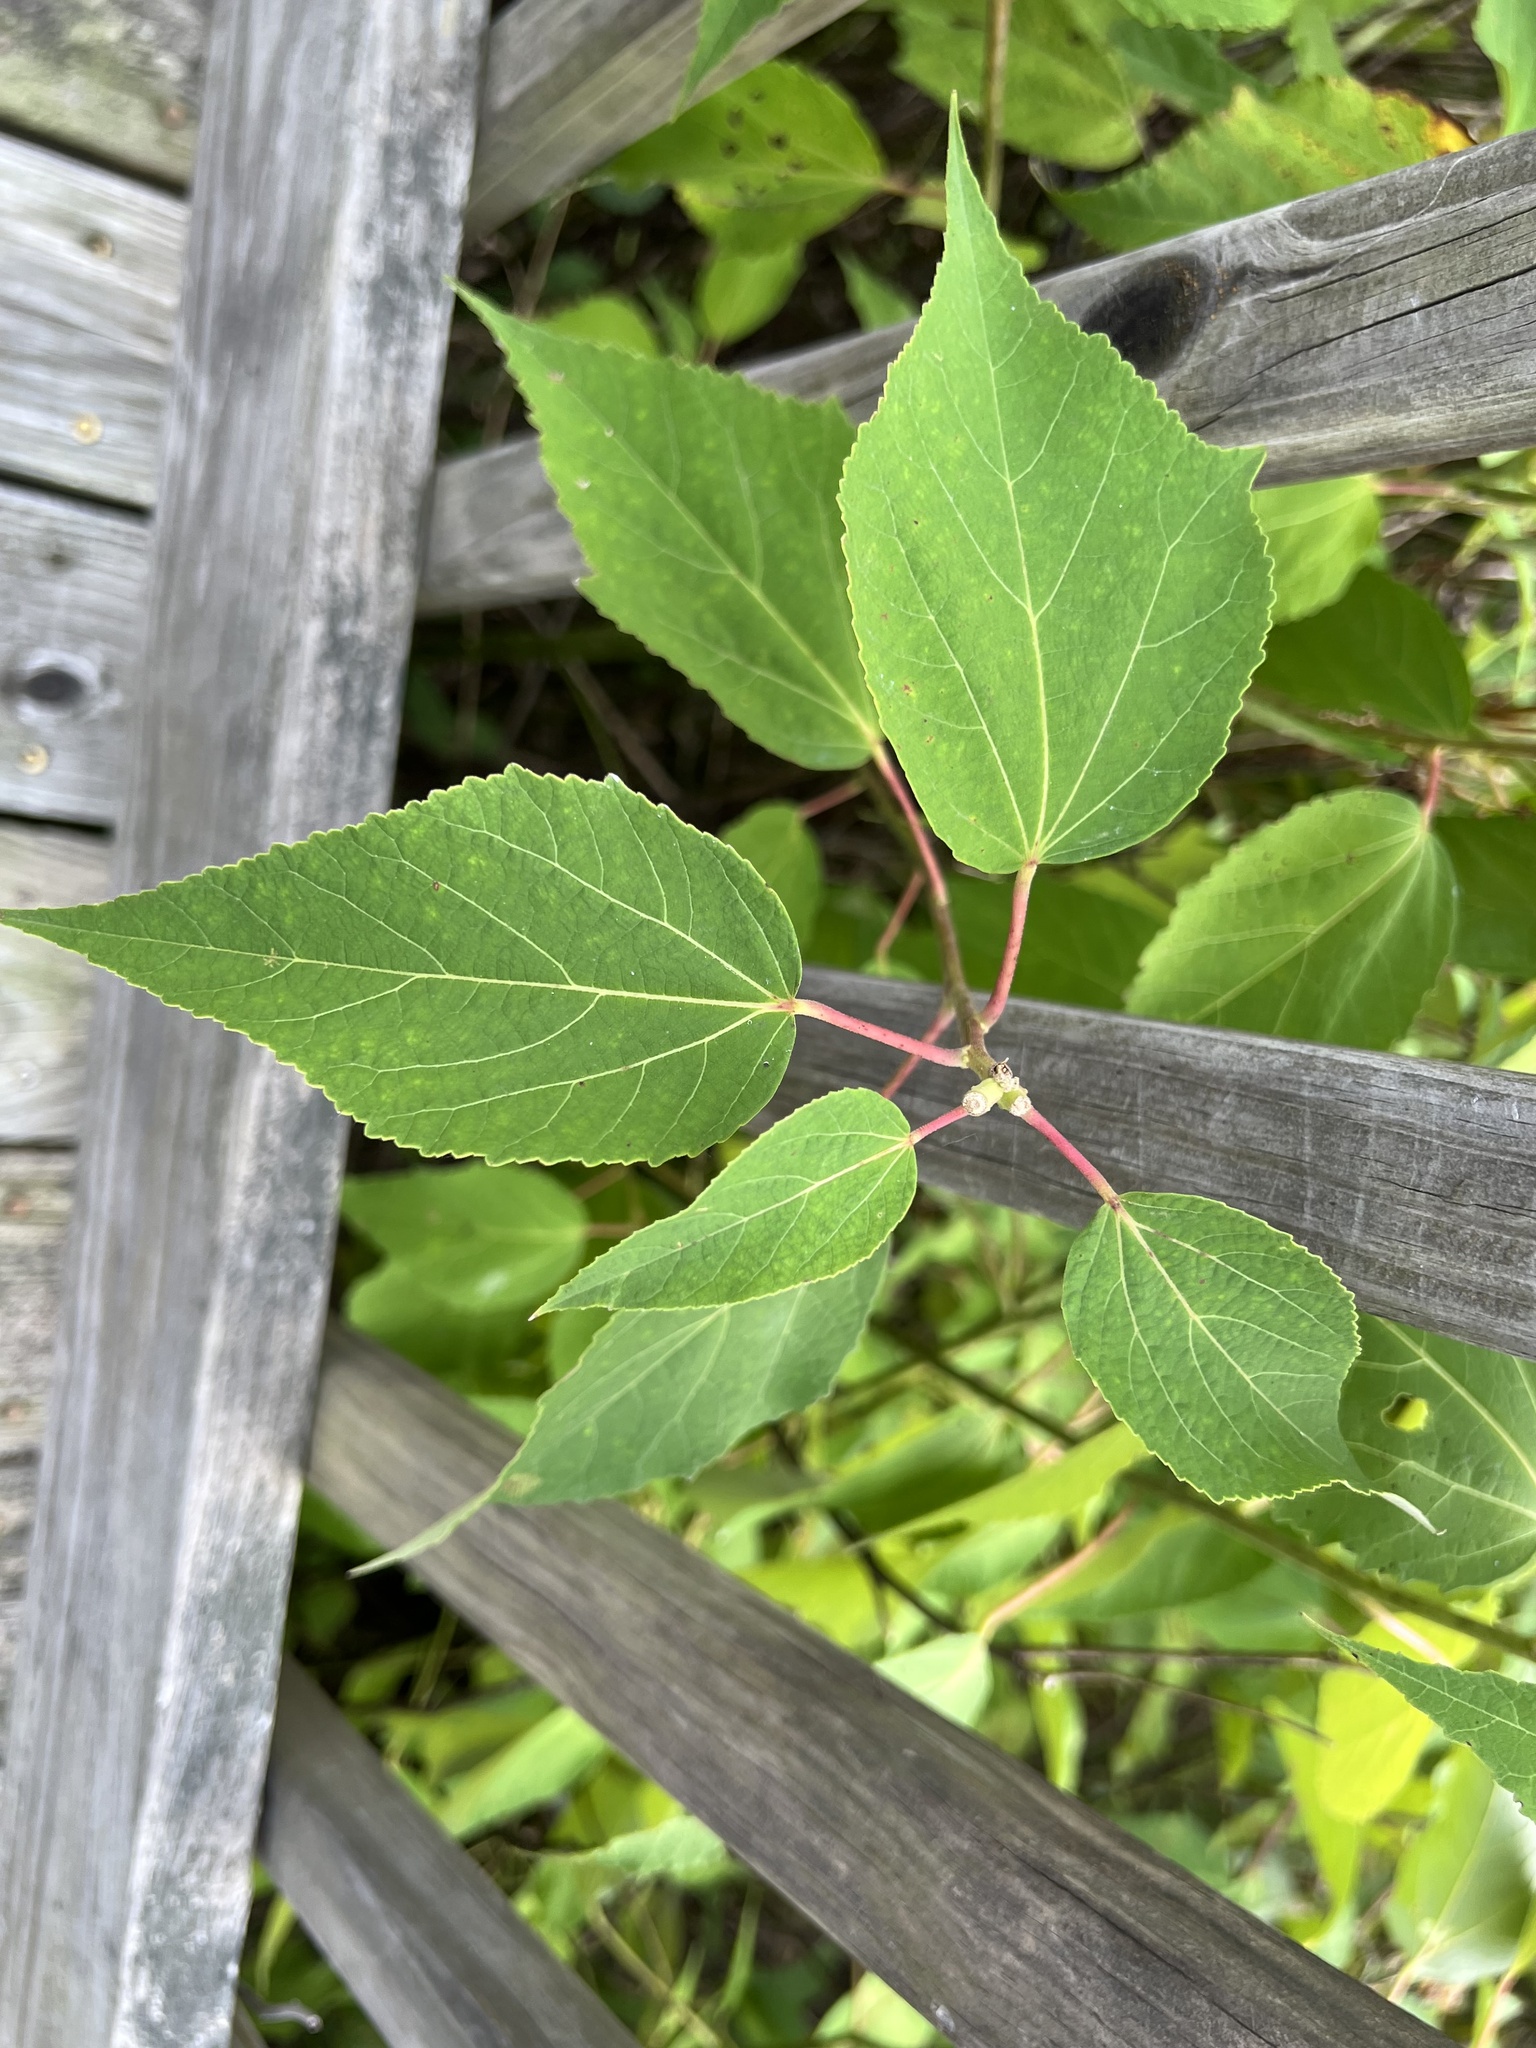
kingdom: Plantae
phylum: Tracheophyta
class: Magnoliopsida
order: Malvales
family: Malvaceae
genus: Hibiscus
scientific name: Hibiscus moscheutos
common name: Common rose-mallow
